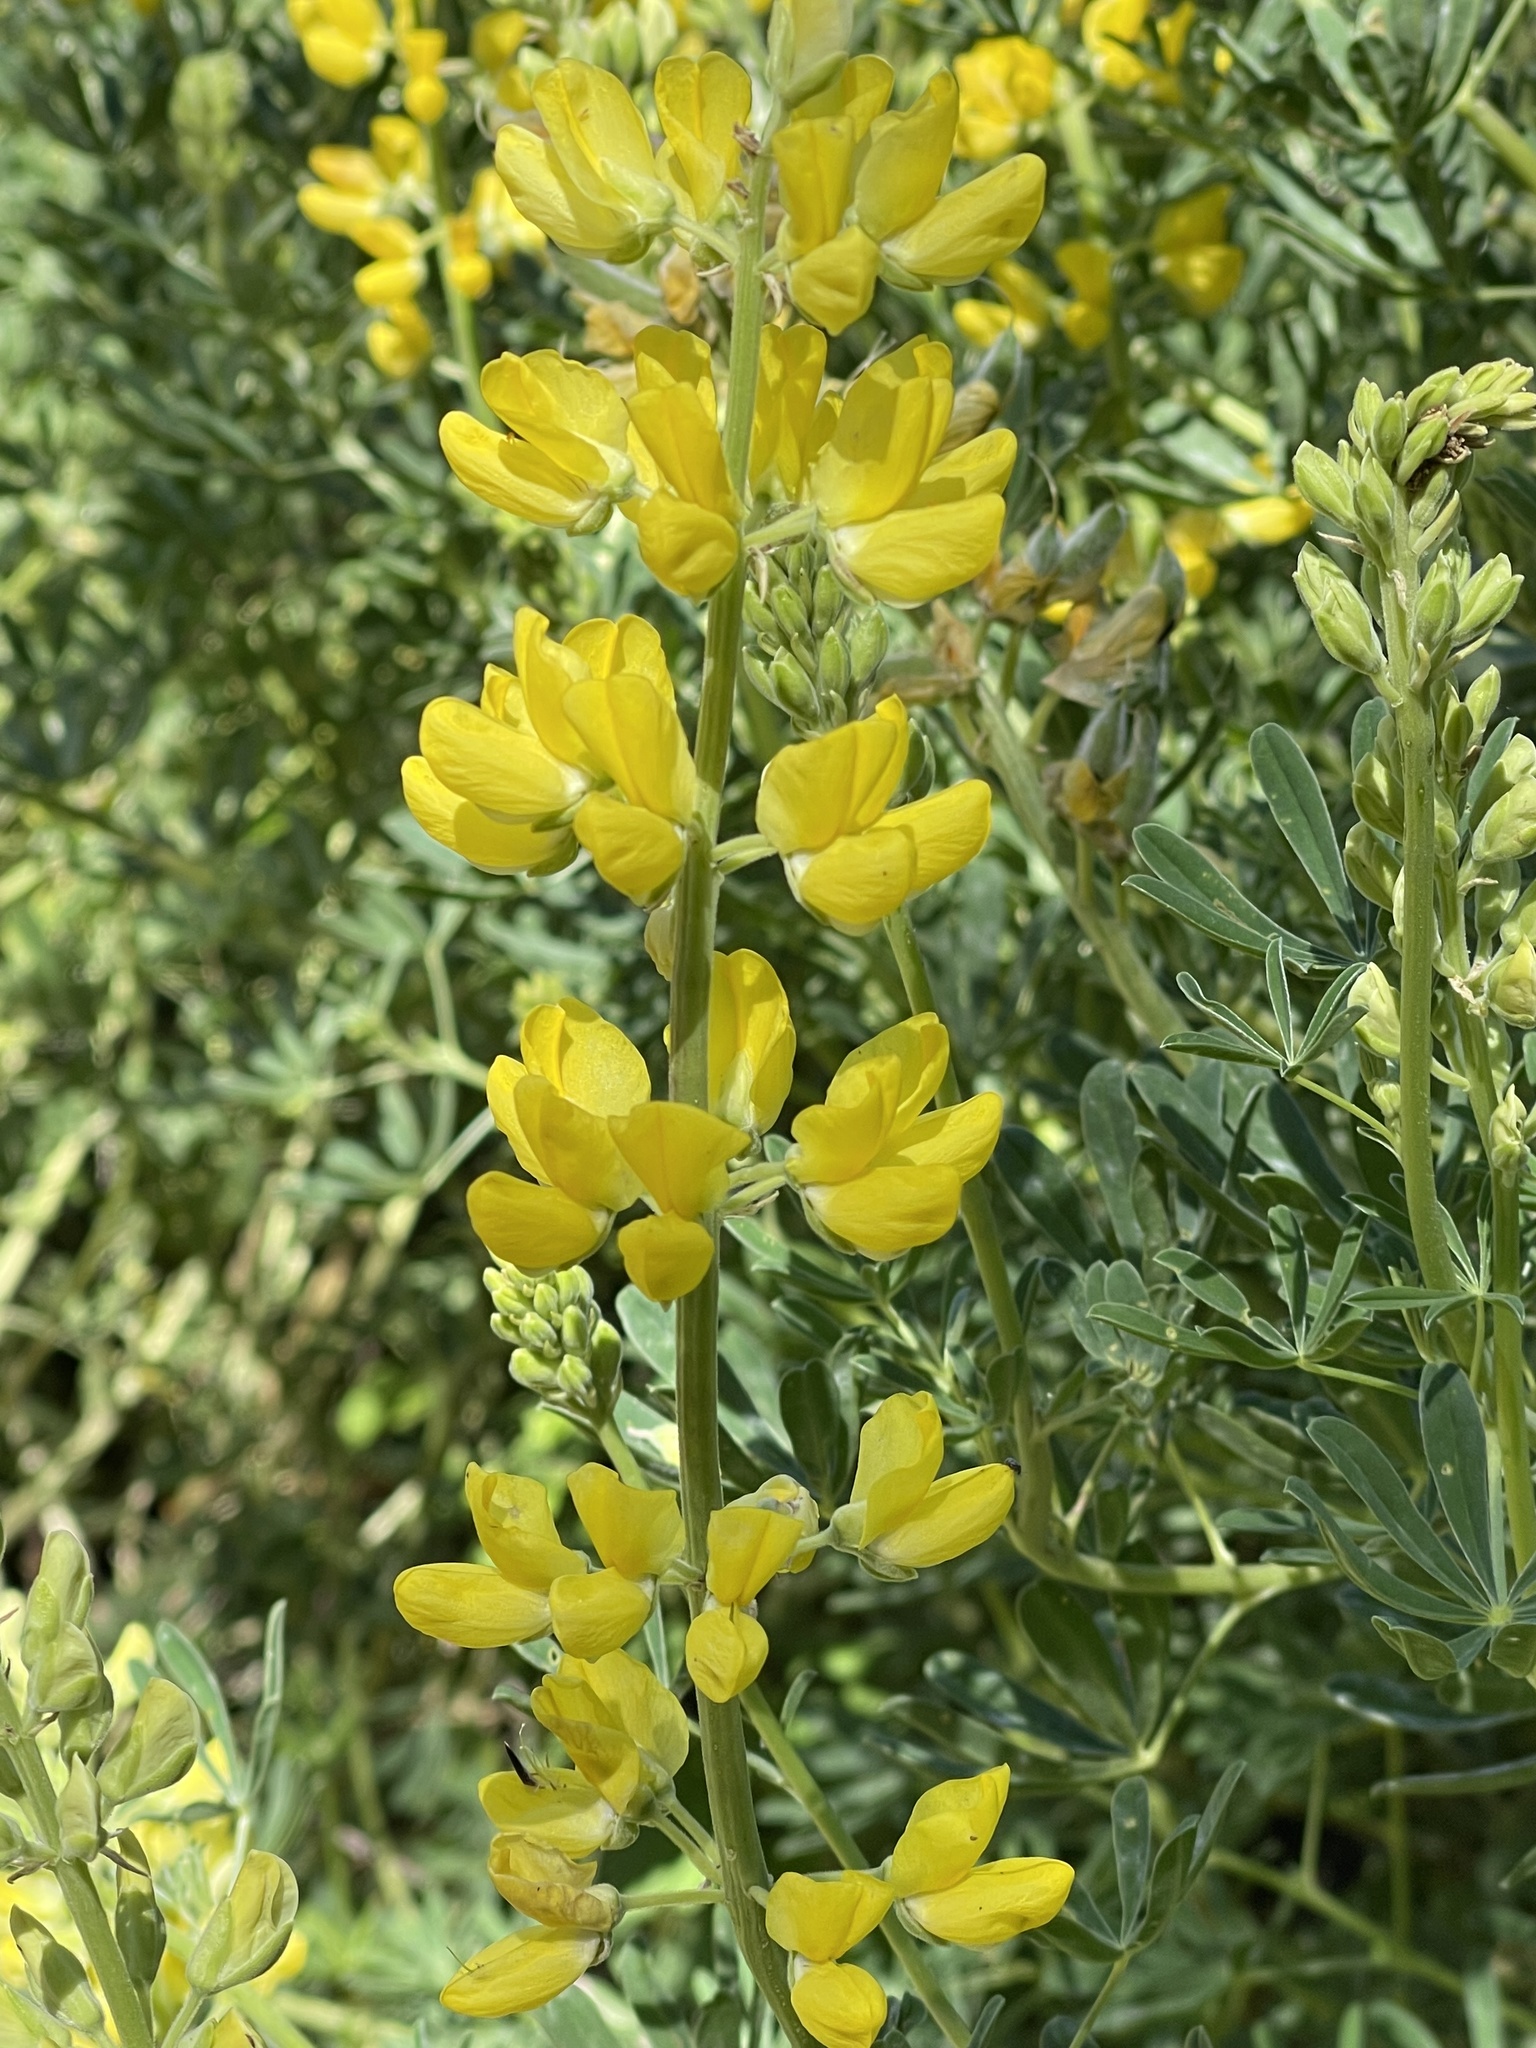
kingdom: Plantae
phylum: Tracheophyta
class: Magnoliopsida
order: Fabales
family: Fabaceae
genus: Lupinus
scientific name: Lupinus arboreus
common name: Yellow bush lupine
